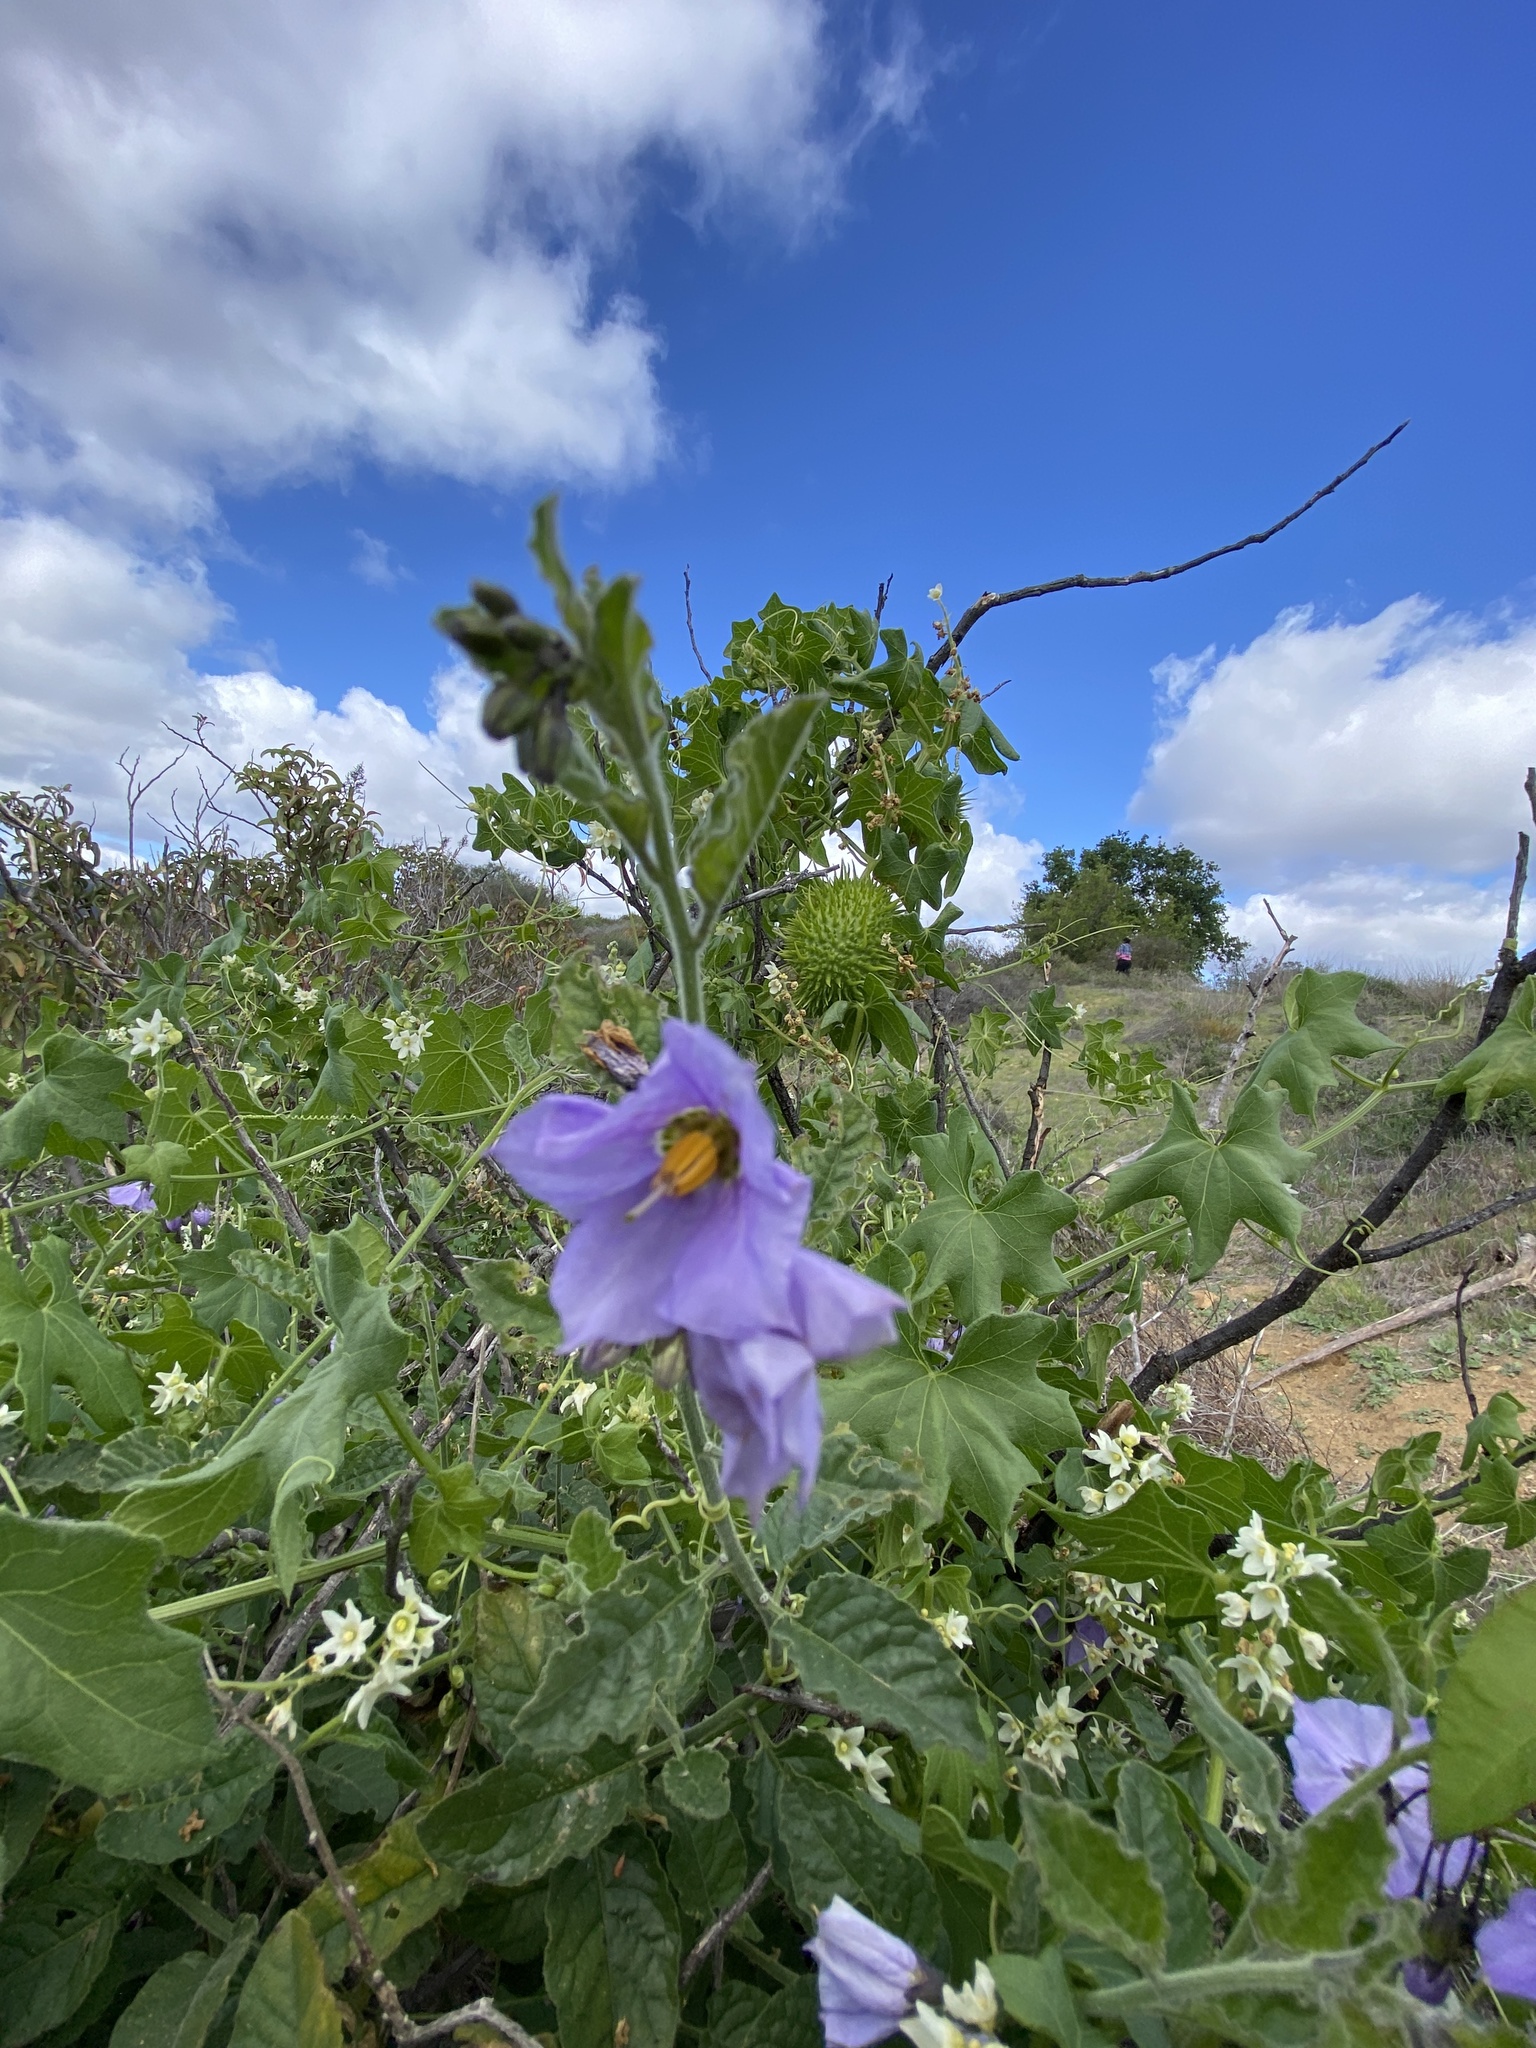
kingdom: Plantae
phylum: Tracheophyta
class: Magnoliopsida
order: Solanales
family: Solanaceae
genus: Solanum
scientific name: Solanum umbelliferum
